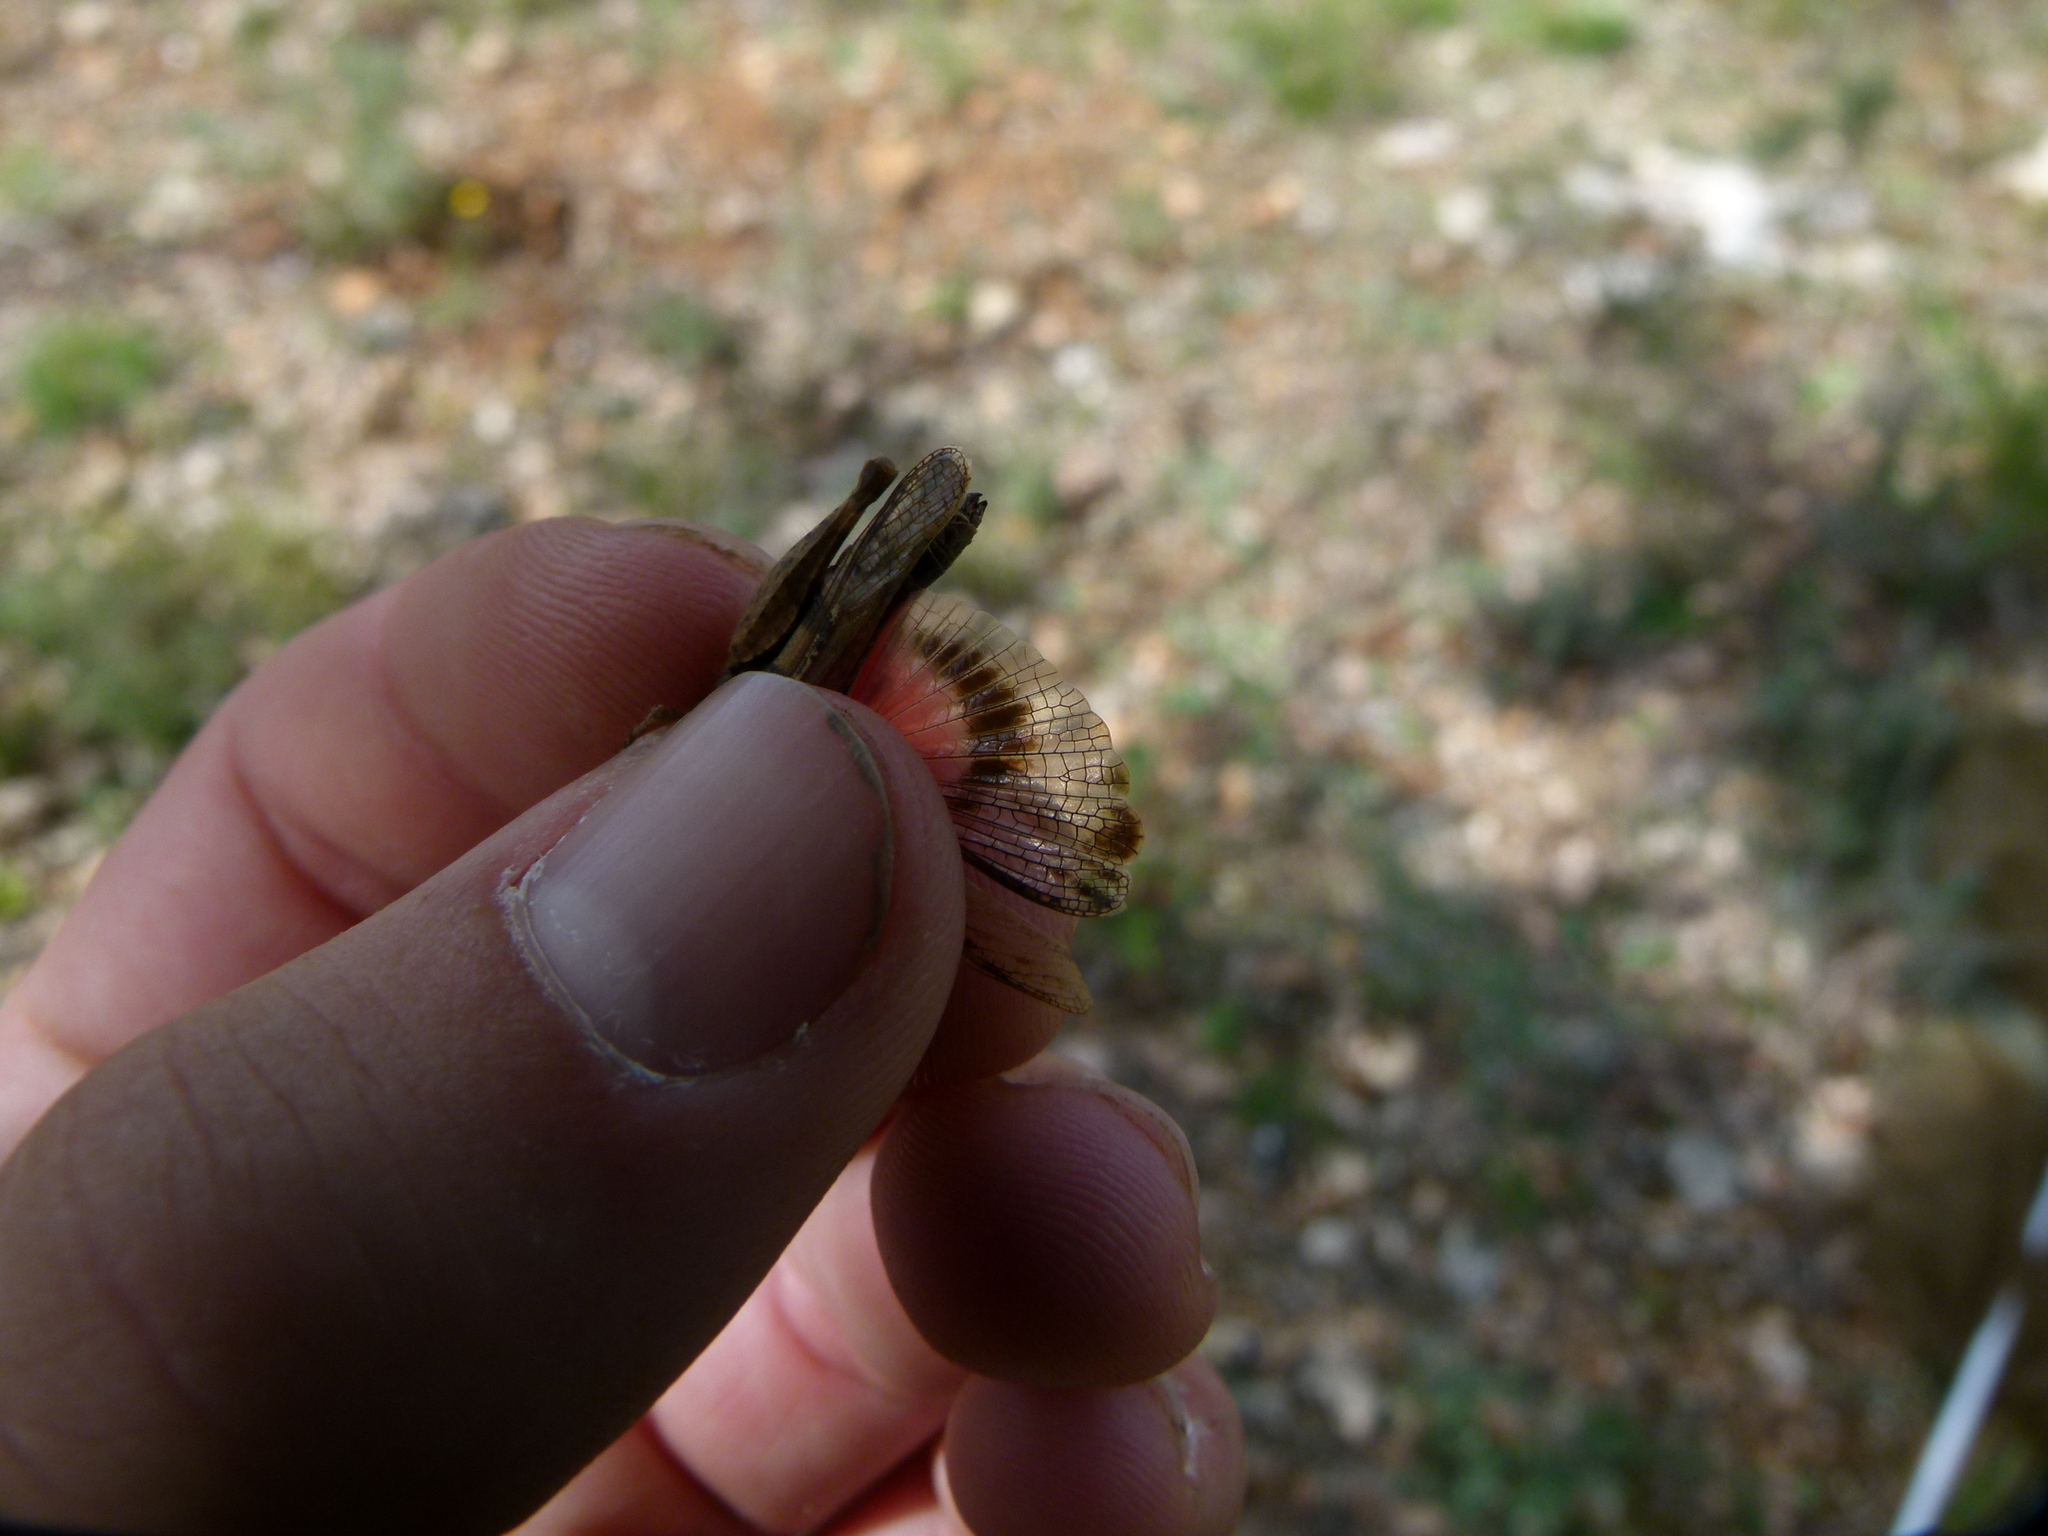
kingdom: Animalia
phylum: Arthropoda
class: Insecta
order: Orthoptera
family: Acrididae
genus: Acrotylus
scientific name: Acrotylus fischeri
